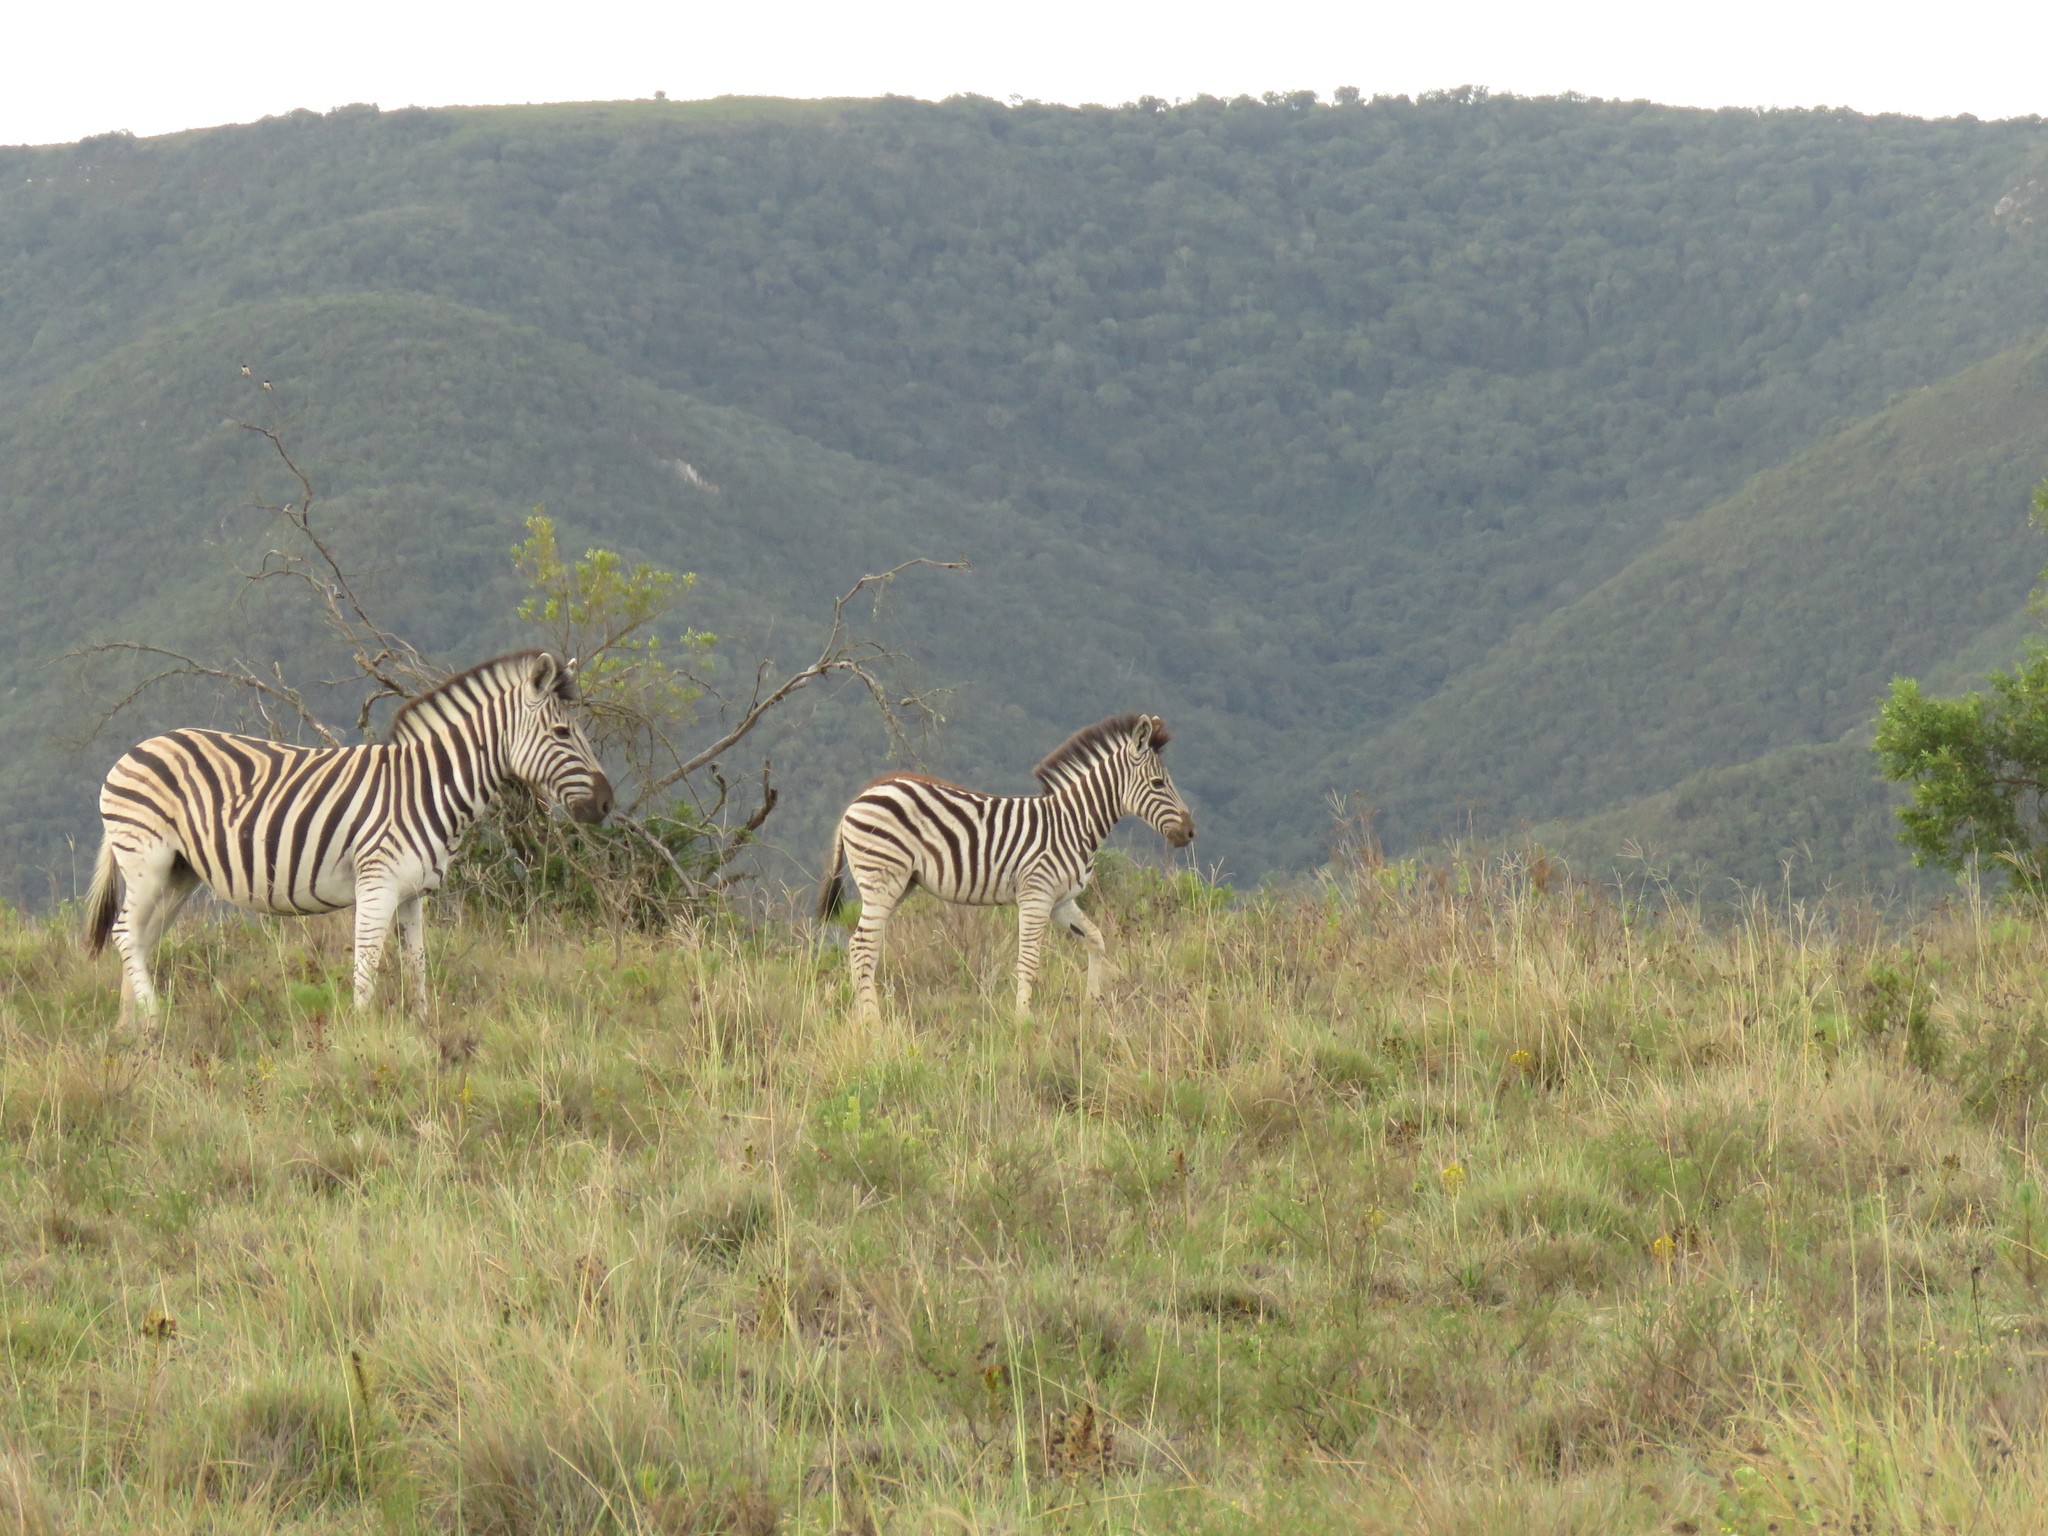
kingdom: Animalia
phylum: Chordata
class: Mammalia
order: Perissodactyla
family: Equidae
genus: Equus
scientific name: Equus quagga
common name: Plains zebra
